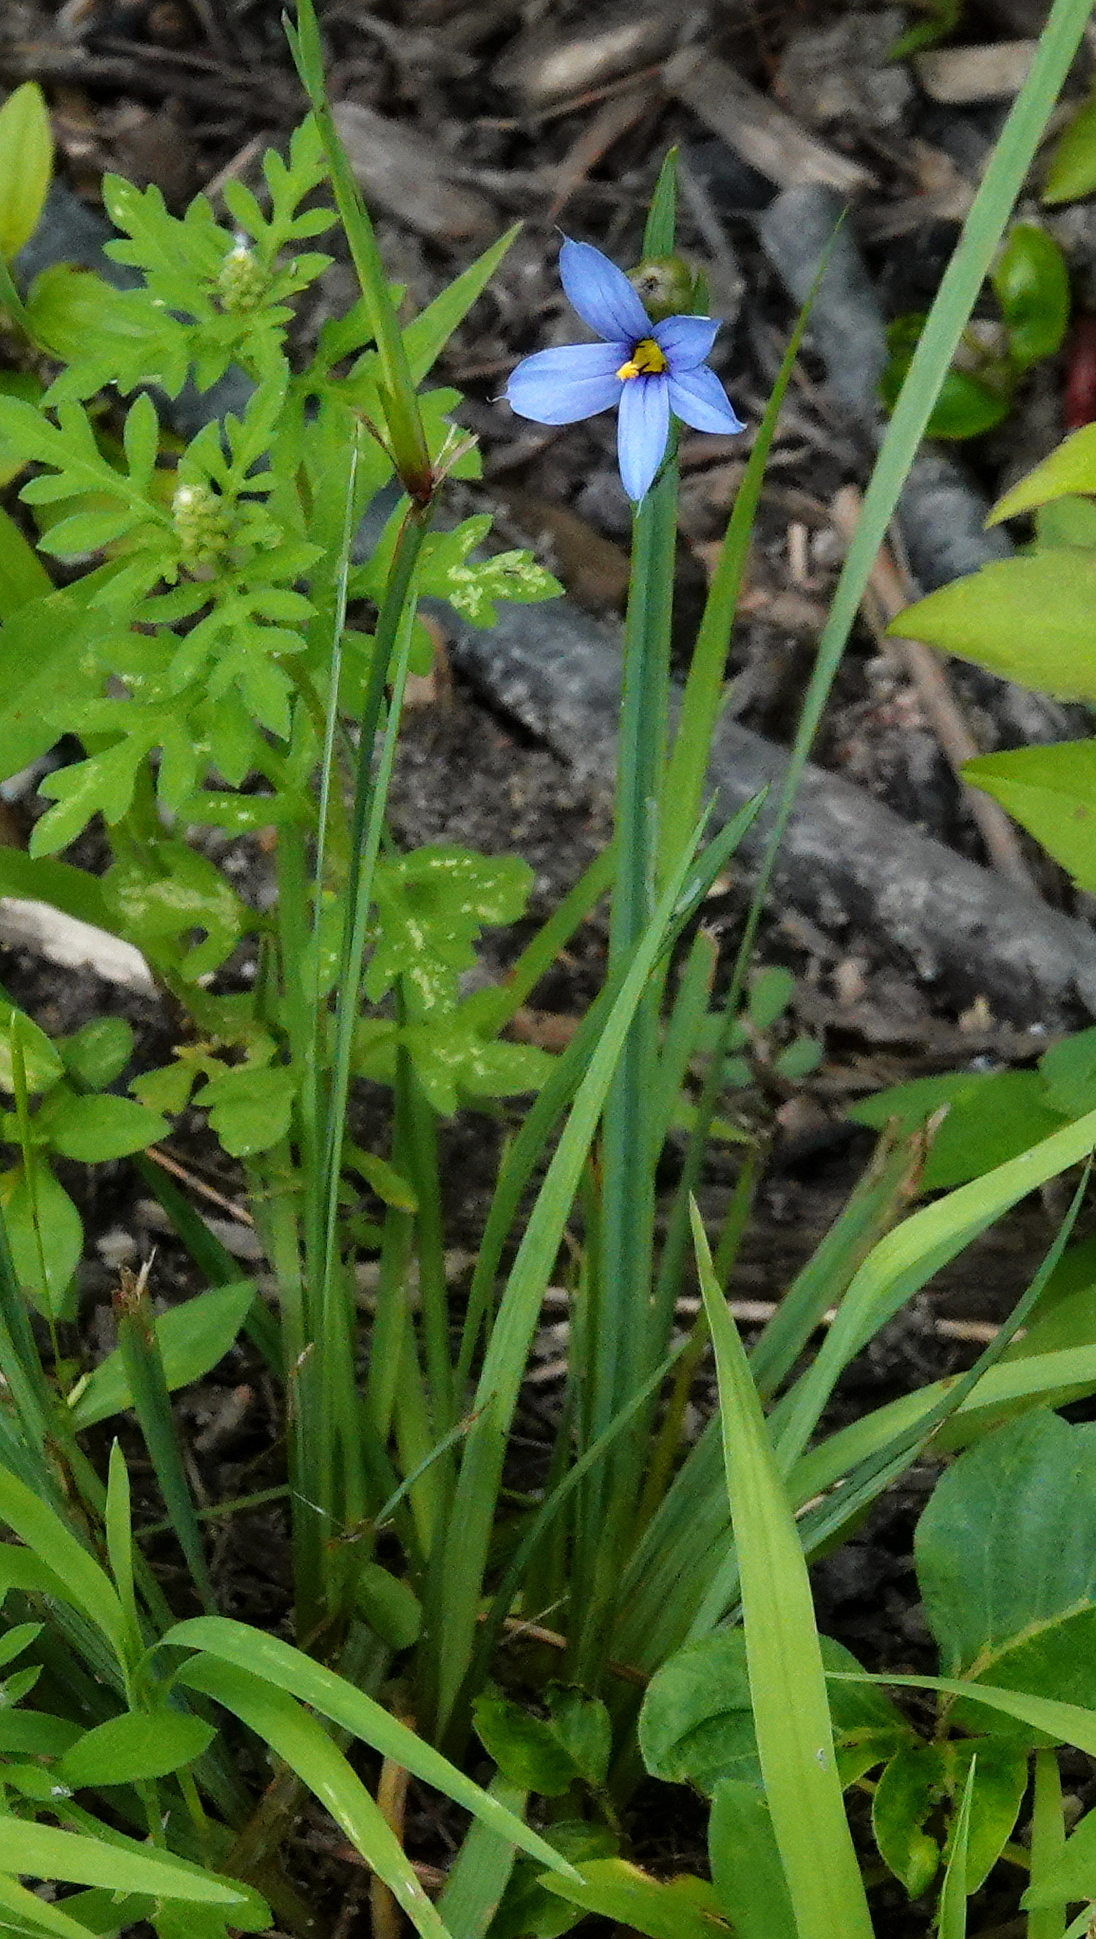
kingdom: Plantae
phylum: Tracheophyta
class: Liliopsida
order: Asparagales
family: Iridaceae
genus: Sisyrinchium
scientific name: Sisyrinchium montanum
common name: American blue-eyed-grass
